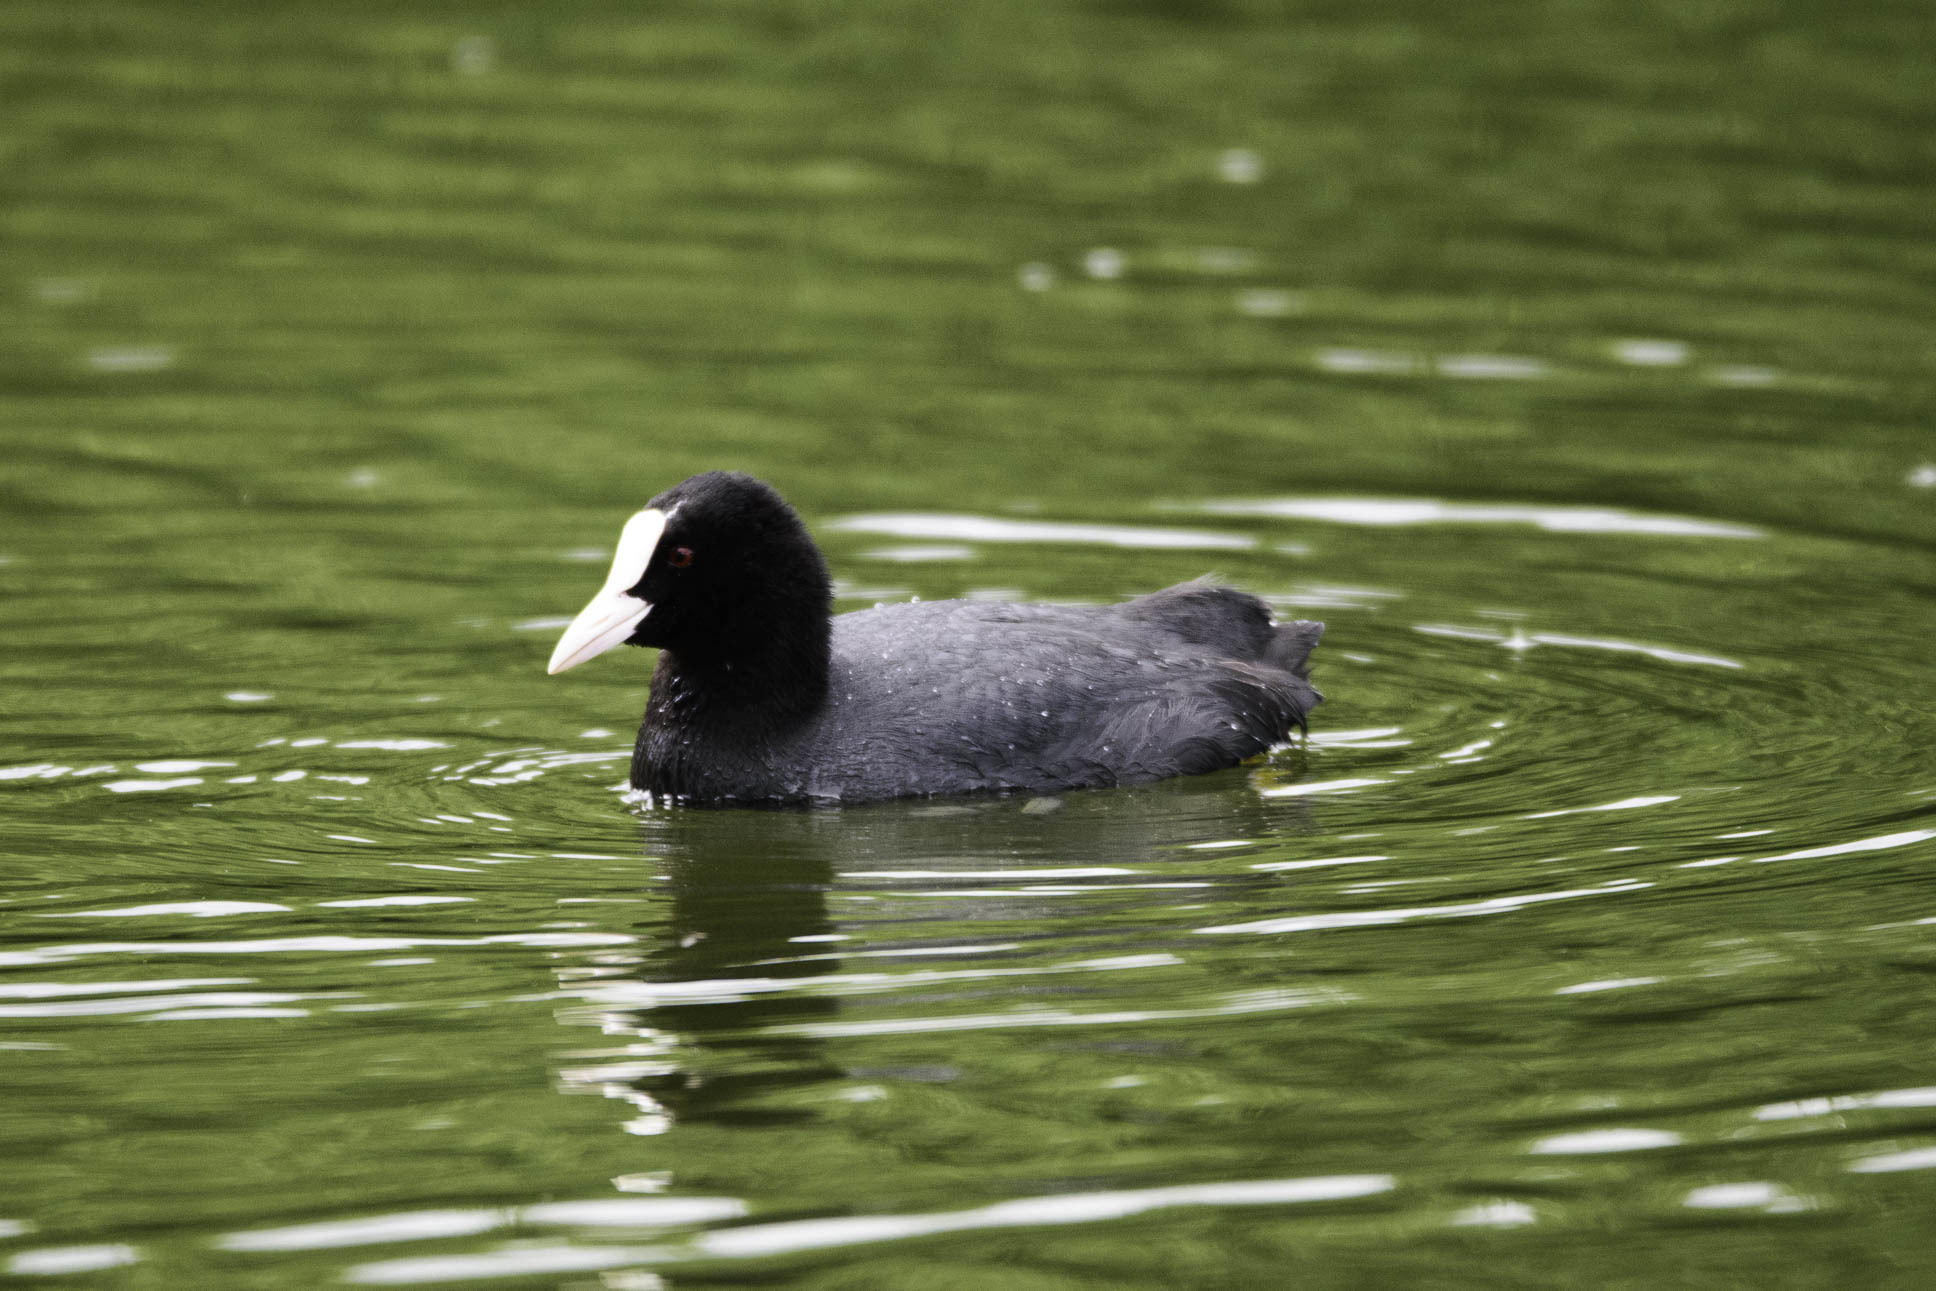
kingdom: Animalia
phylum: Chordata
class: Aves
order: Gruiformes
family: Rallidae
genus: Fulica
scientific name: Fulica atra
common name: Eurasian coot
